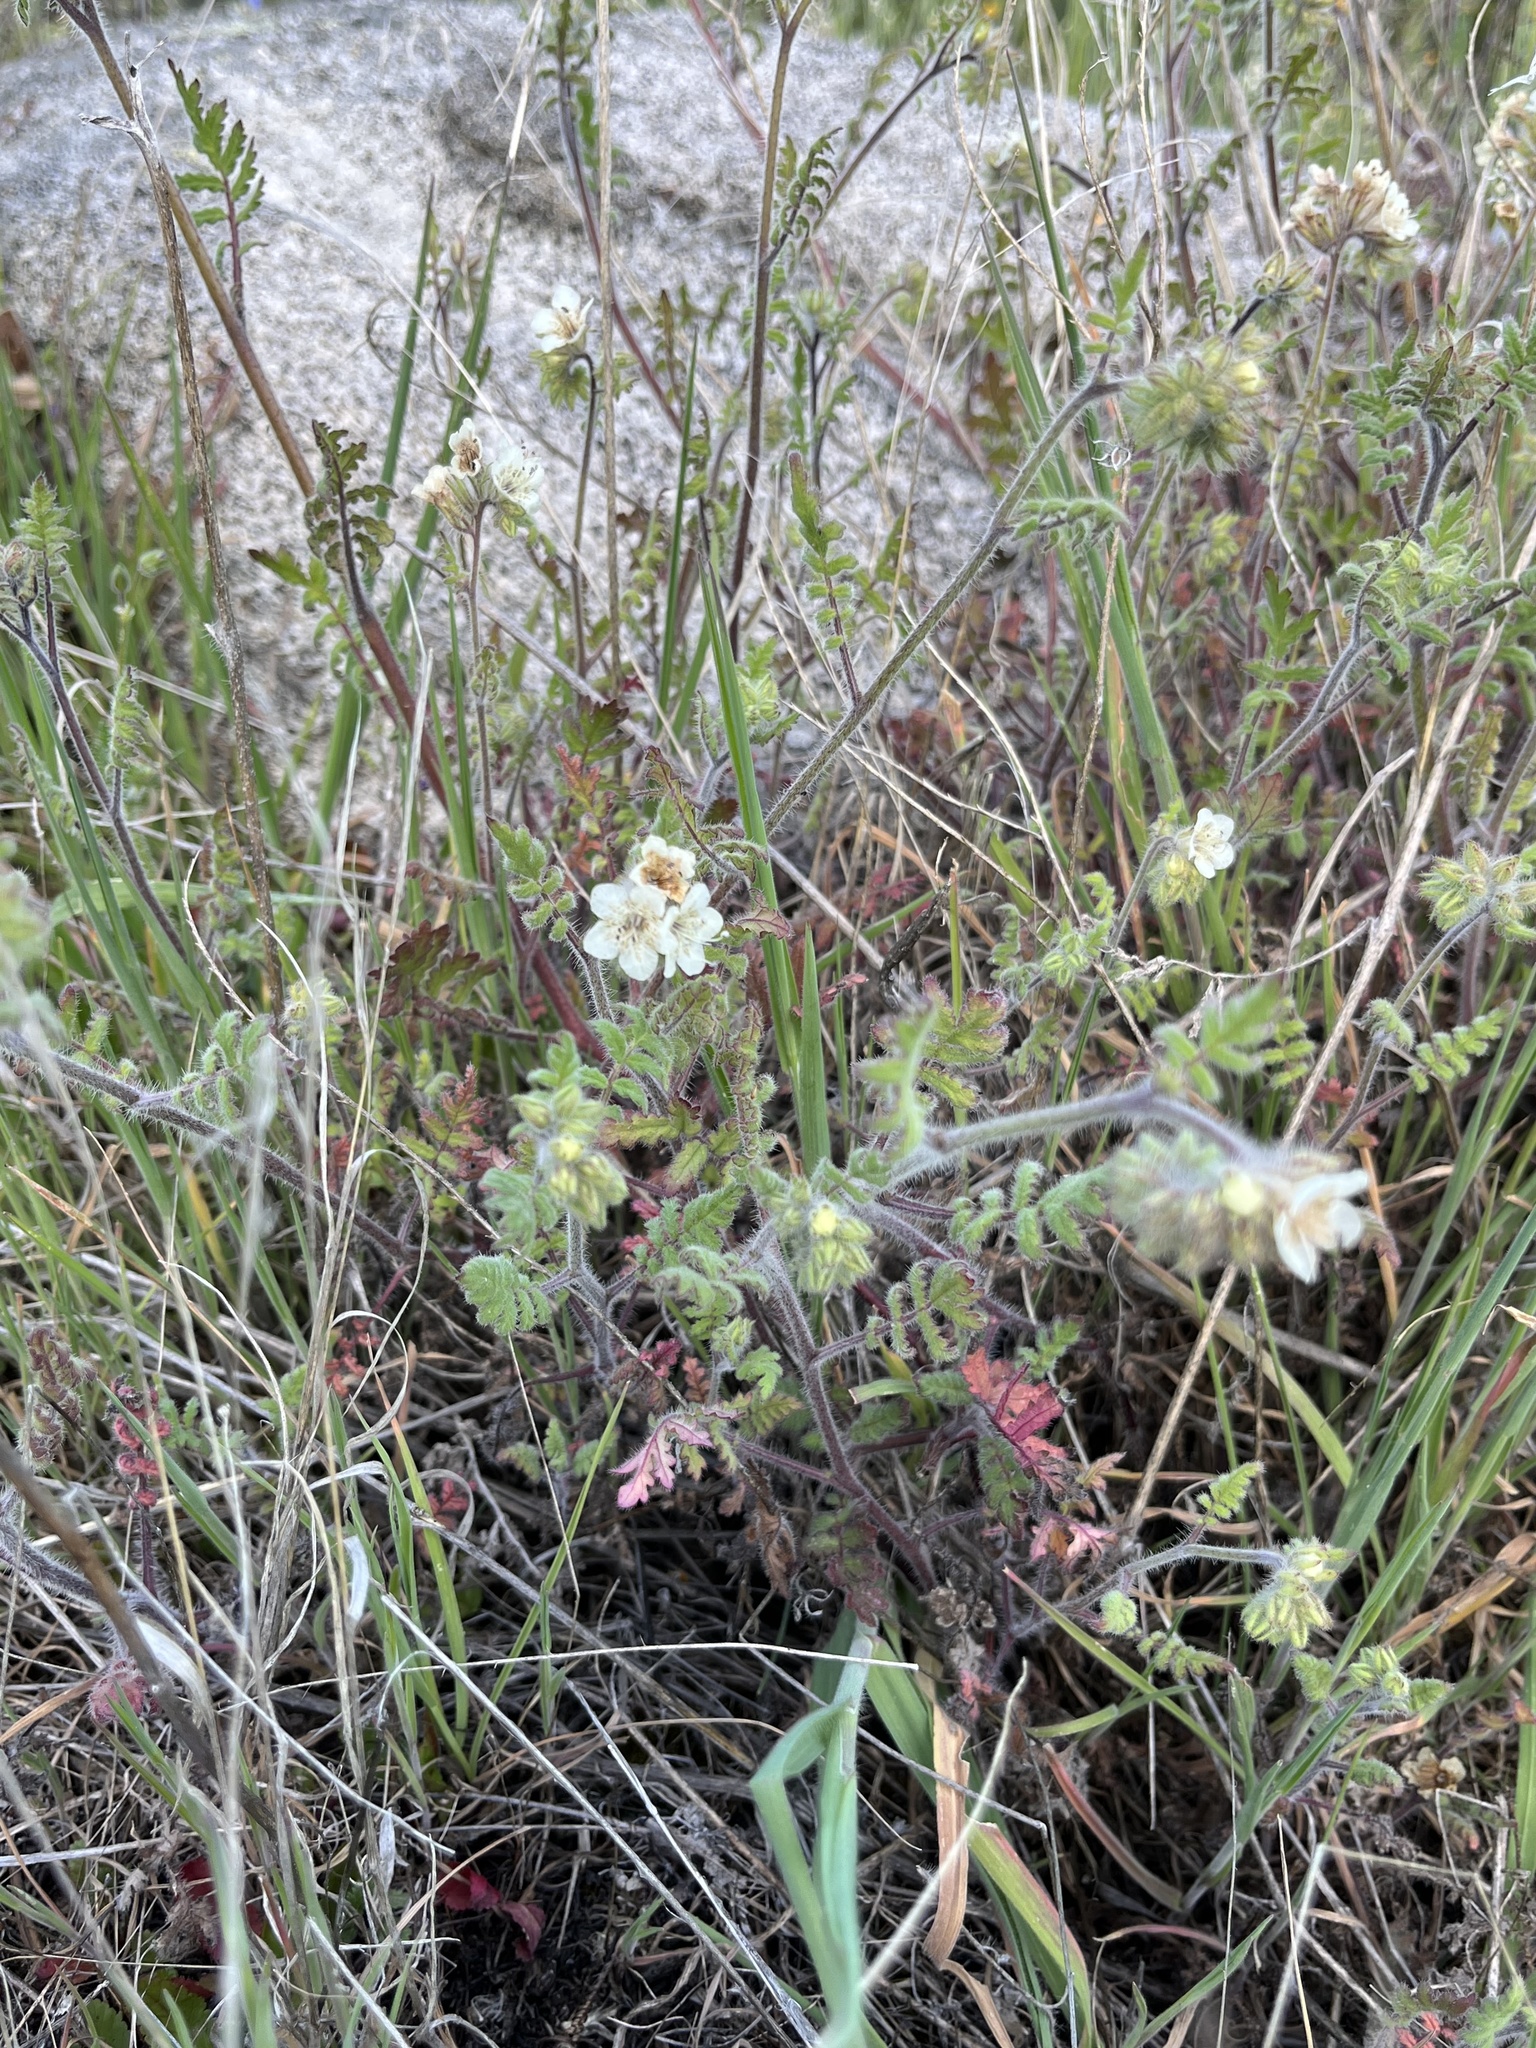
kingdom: Plantae
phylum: Tracheophyta
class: Magnoliopsida
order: Boraginales
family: Hydrophyllaceae
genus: Phacelia
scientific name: Phacelia cicutaria
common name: Caterpillar phacelia
